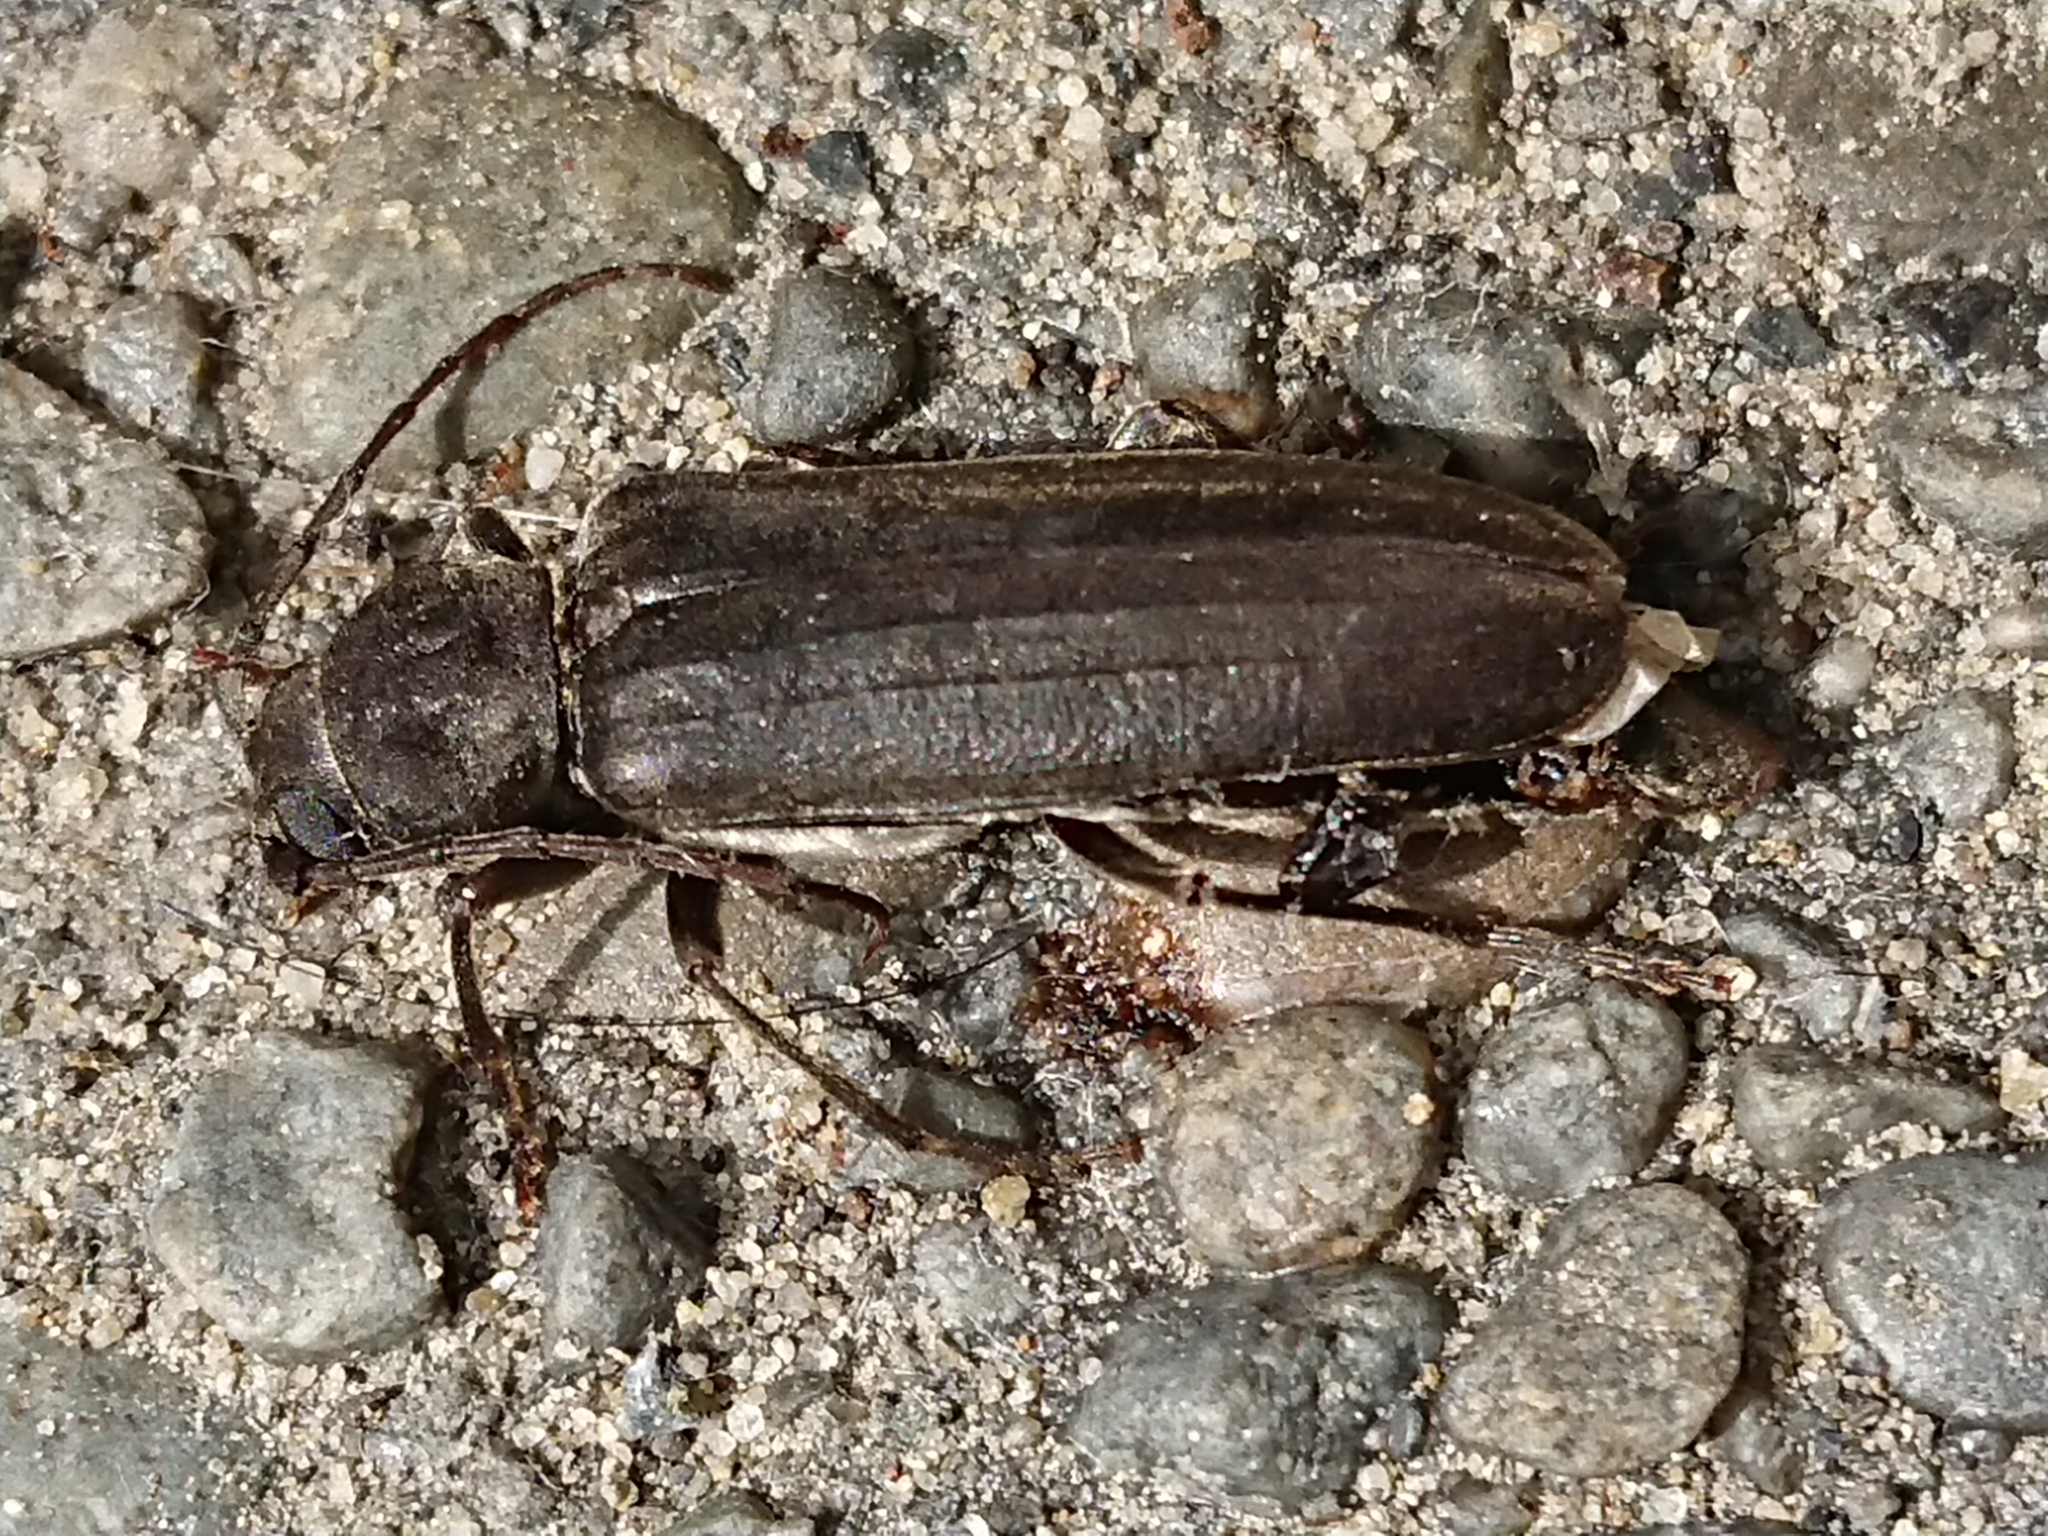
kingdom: Animalia
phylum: Arthropoda
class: Insecta
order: Coleoptera
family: Cerambycidae
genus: Arhopalus
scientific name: Arhopalus ferus
